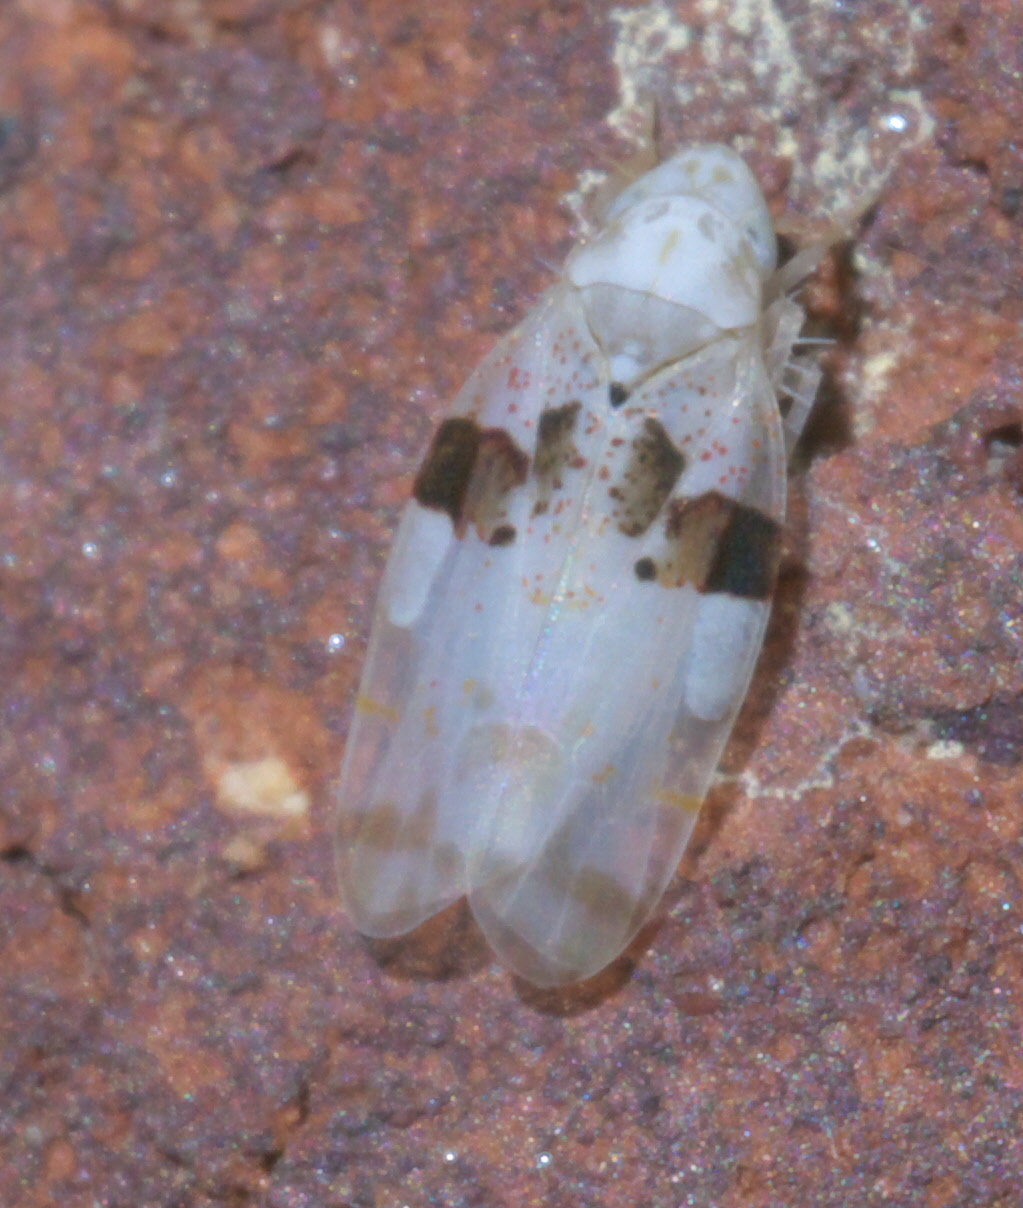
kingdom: Animalia
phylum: Arthropoda
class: Insecta
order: Hemiptera
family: Cicadellidae
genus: Hymetta
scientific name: Hymetta anthisma
